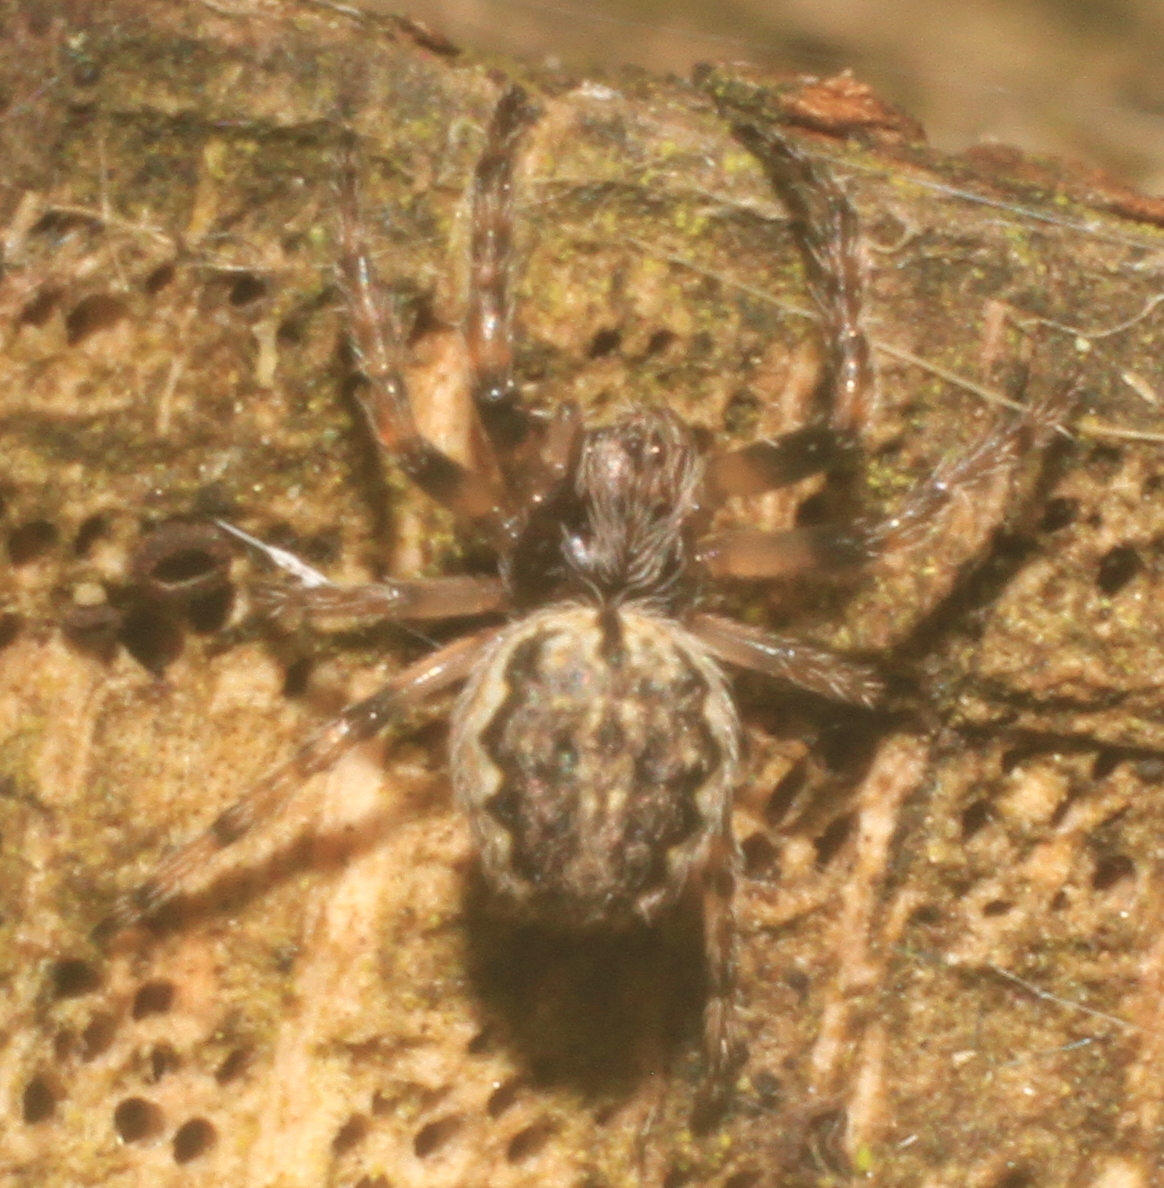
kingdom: Animalia
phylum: Arthropoda
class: Arachnida
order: Araneae
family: Araneidae
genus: Nuctenea
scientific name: Nuctenea umbratica
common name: Toad spider
